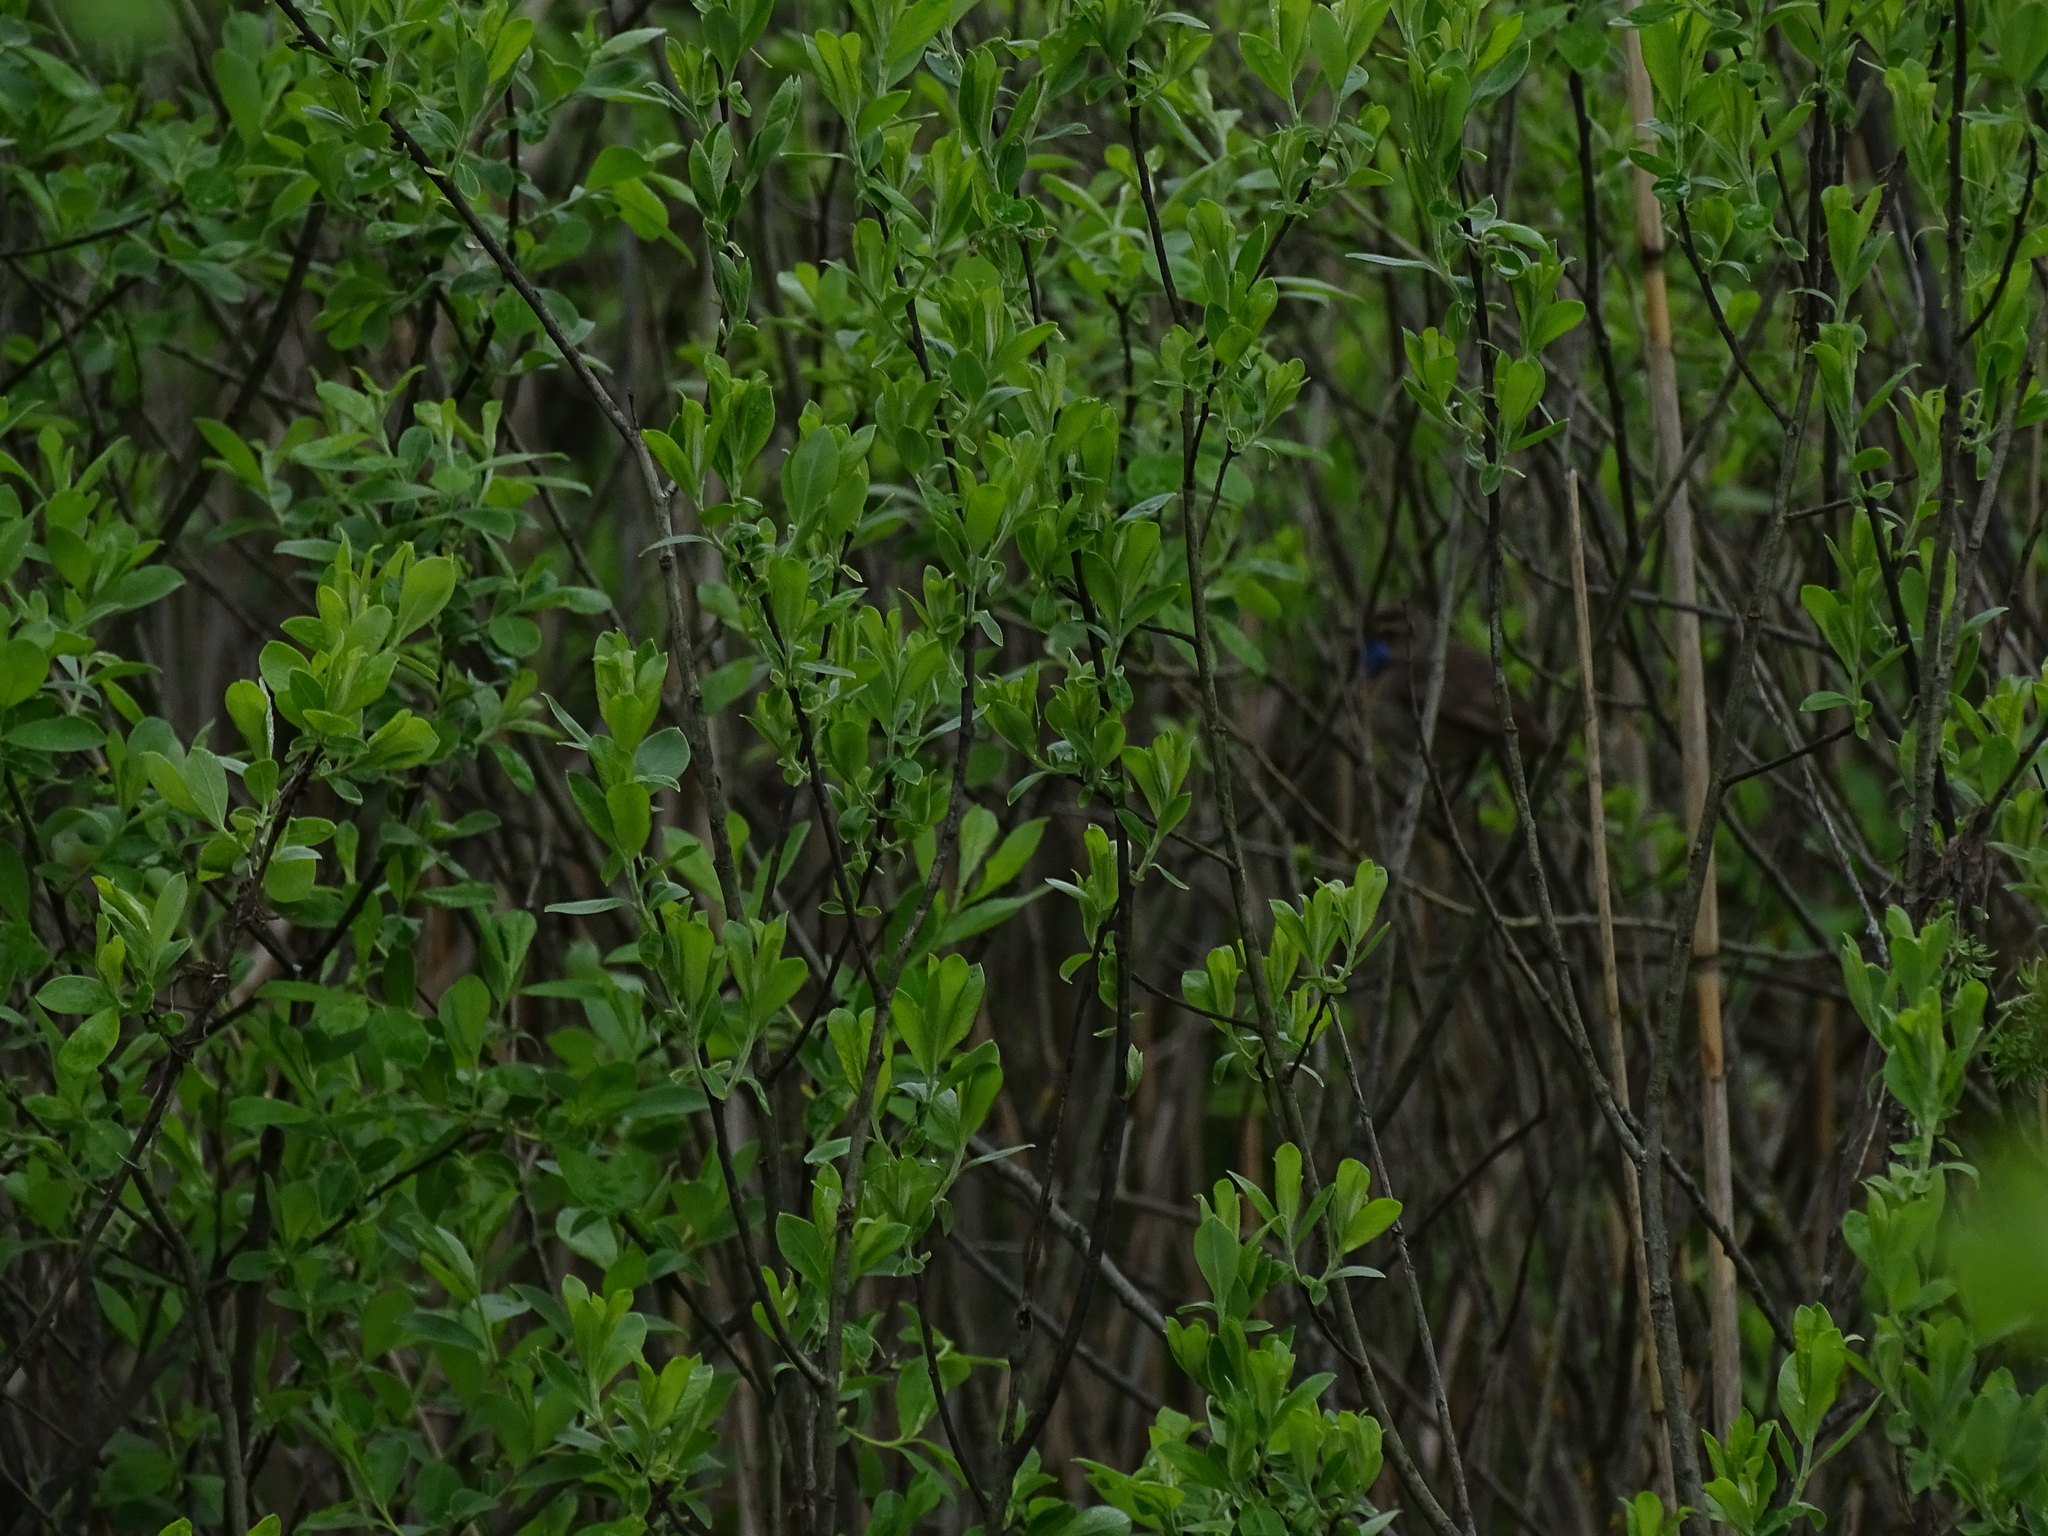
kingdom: Animalia
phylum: Chordata
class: Aves
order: Passeriformes
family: Muscicapidae
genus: Luscinia
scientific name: Luscinia svecica
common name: Bluethroat
